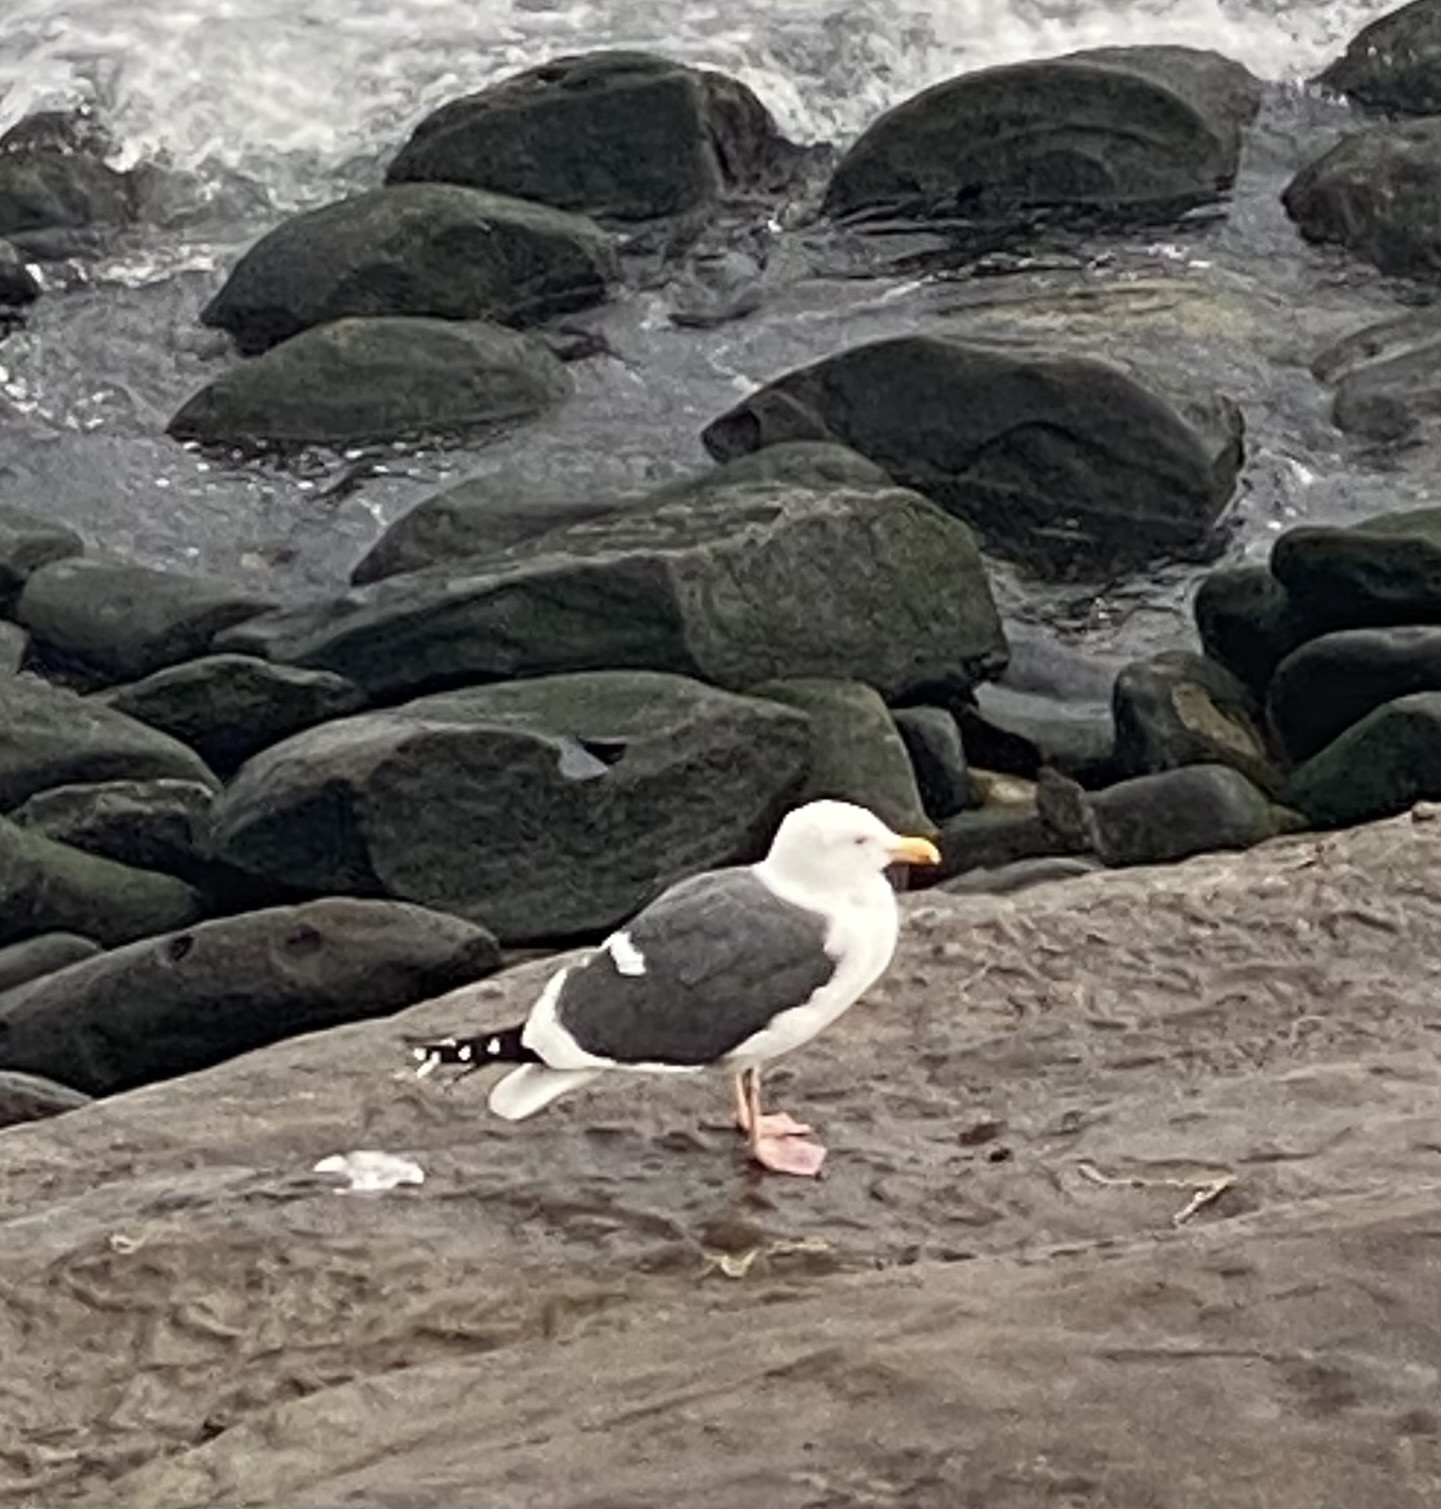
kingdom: Animalia
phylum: Chordata
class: Aves
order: Charadriiformes
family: Laridae
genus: Larus
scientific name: Larus occidentalis
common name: Western gull
